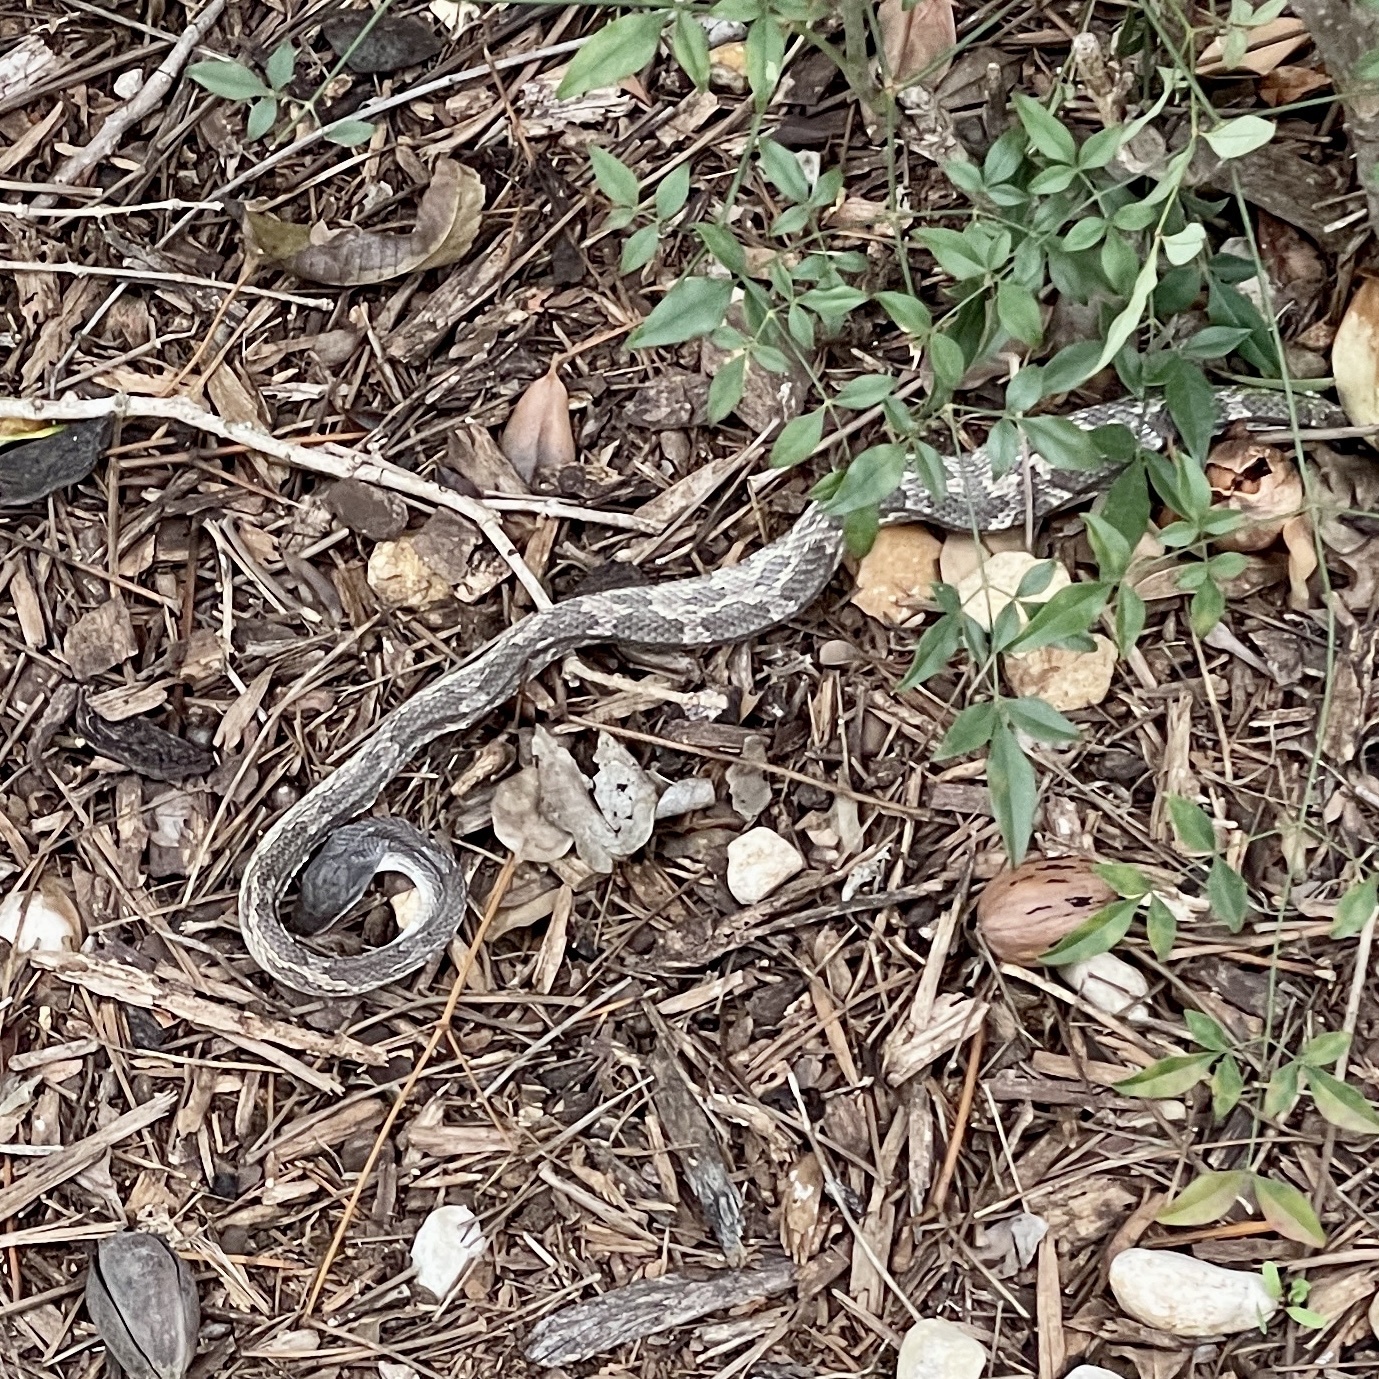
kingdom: Animalia
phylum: Chordata
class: Squamata
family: Colubridae
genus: Pantherophis
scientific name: Pantherophis obsoletus
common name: Black rat snake
